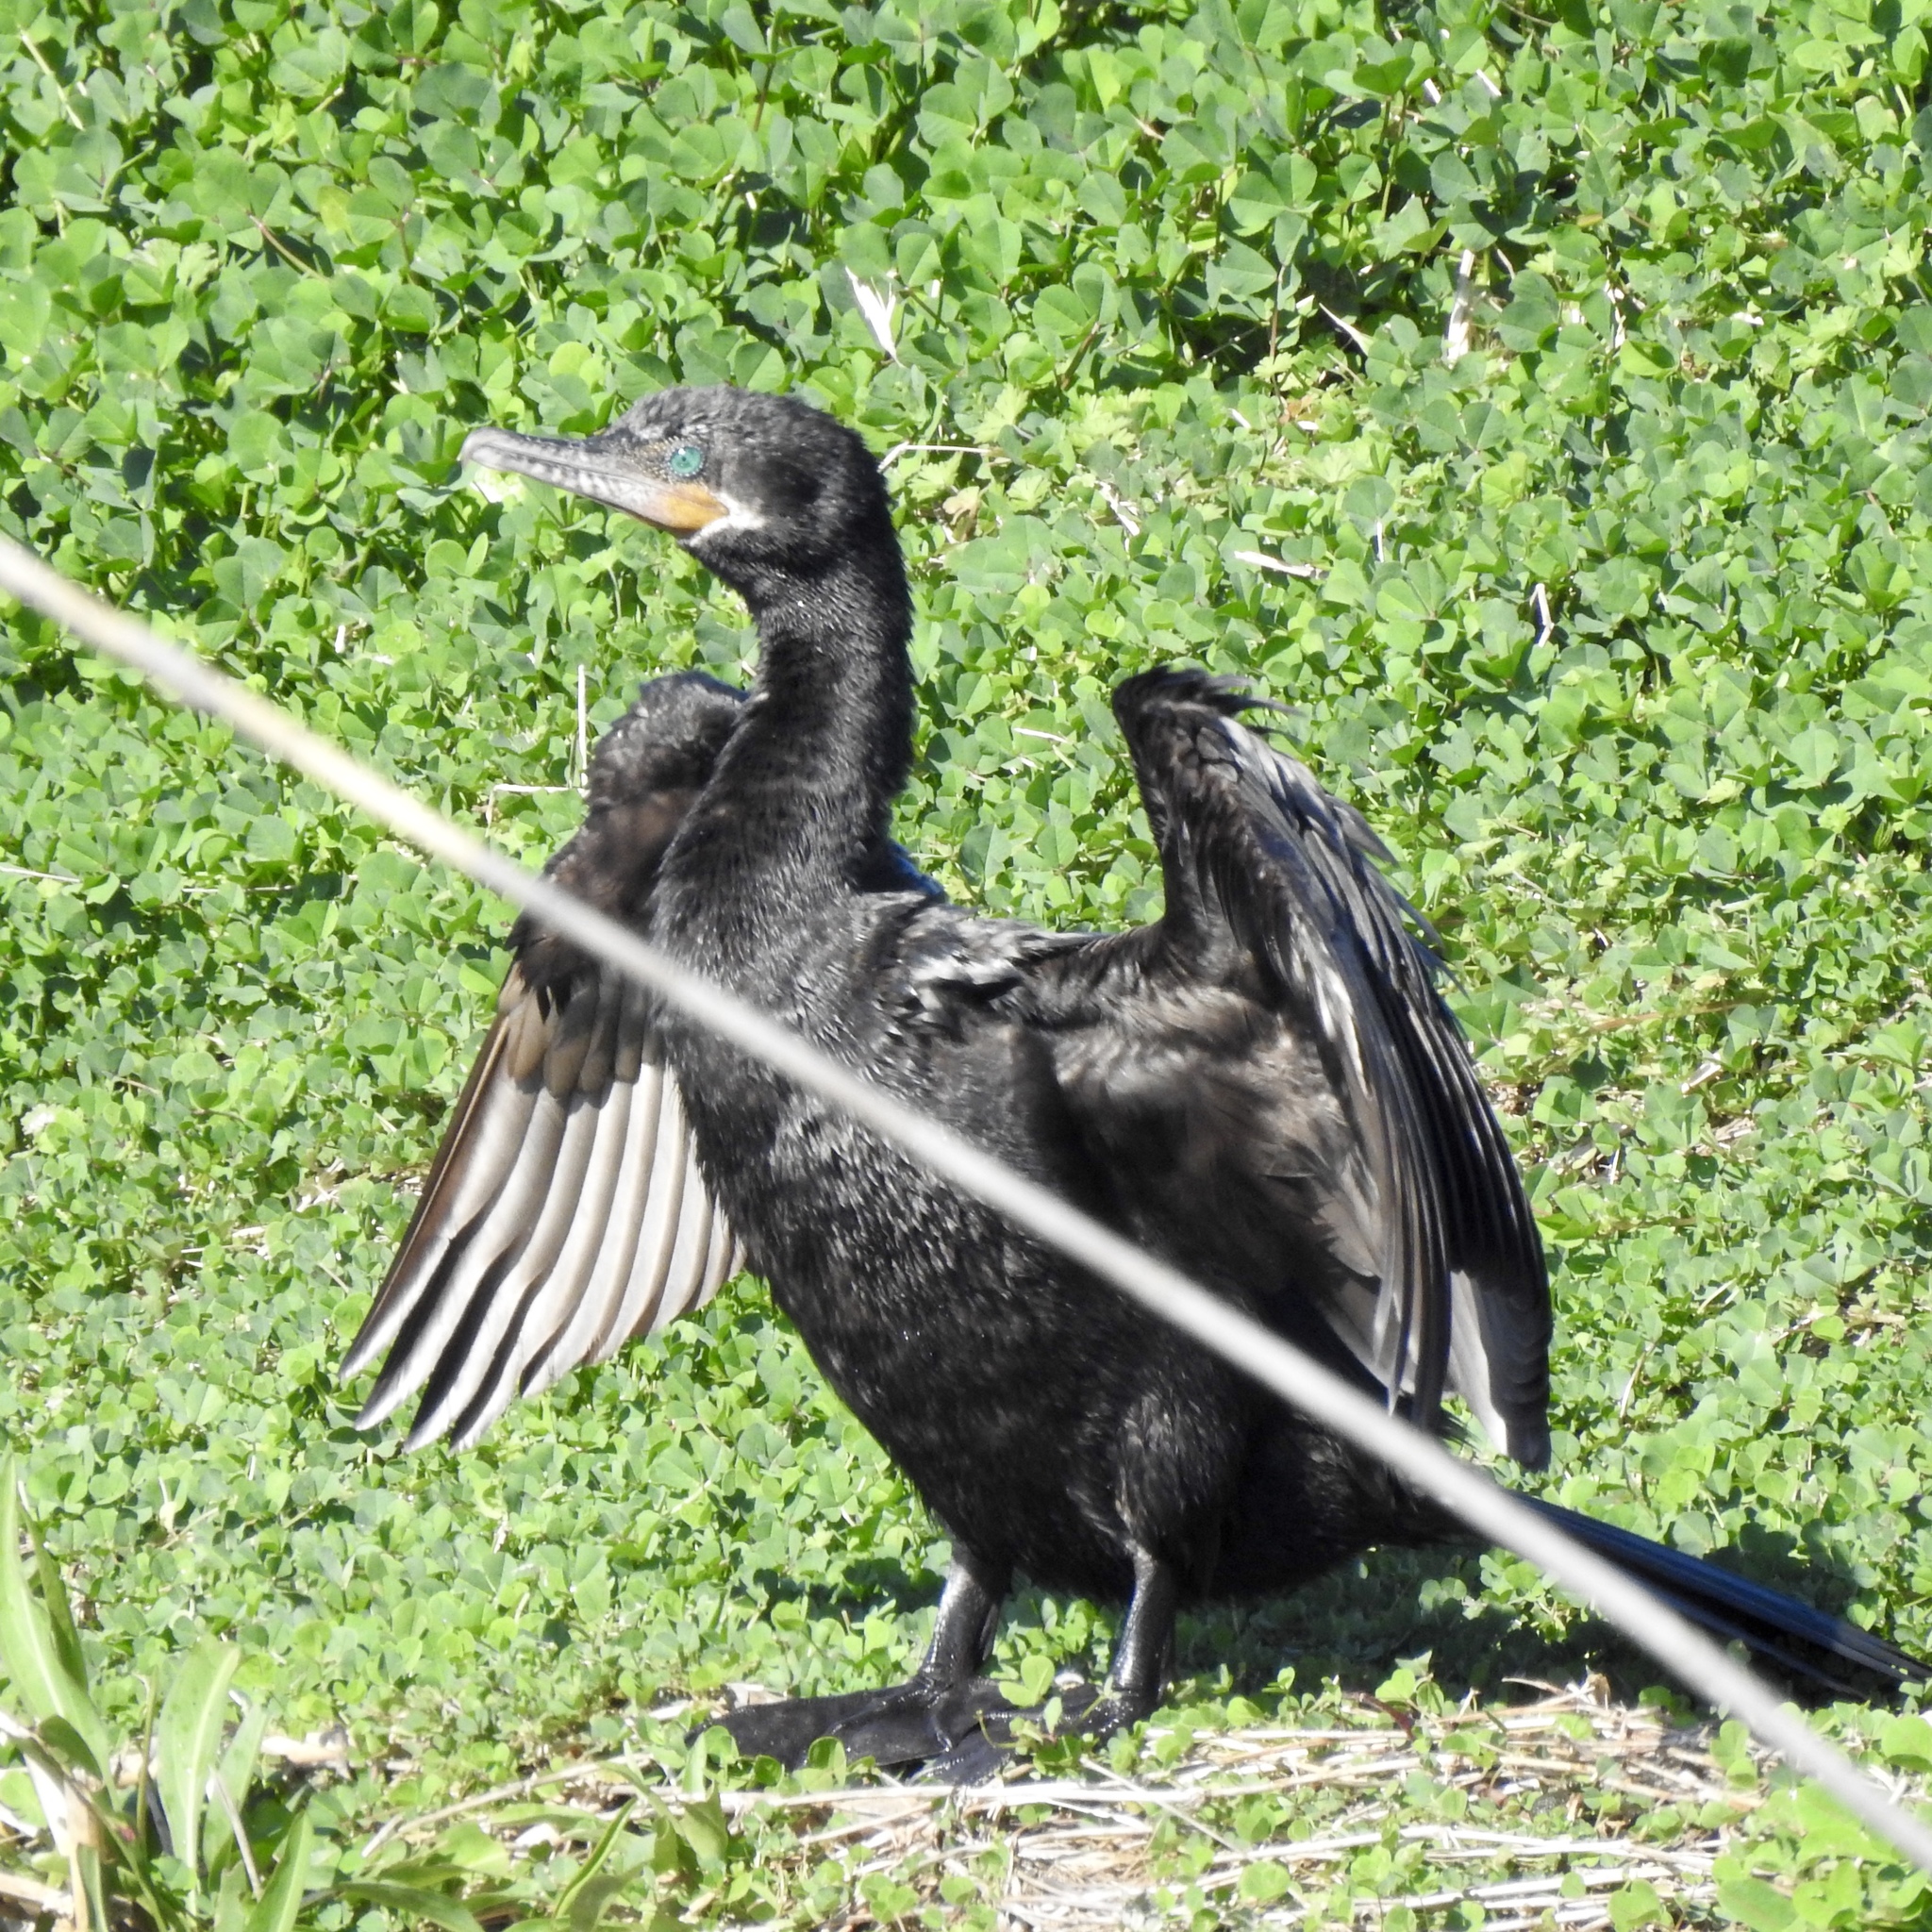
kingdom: Animalia
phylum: Chordata
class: Aves
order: Suliformes
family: Phalacrocoracidae
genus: Phalacrocorax
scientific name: Phalacrocorax brasilianus
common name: Neotropic cormorant
